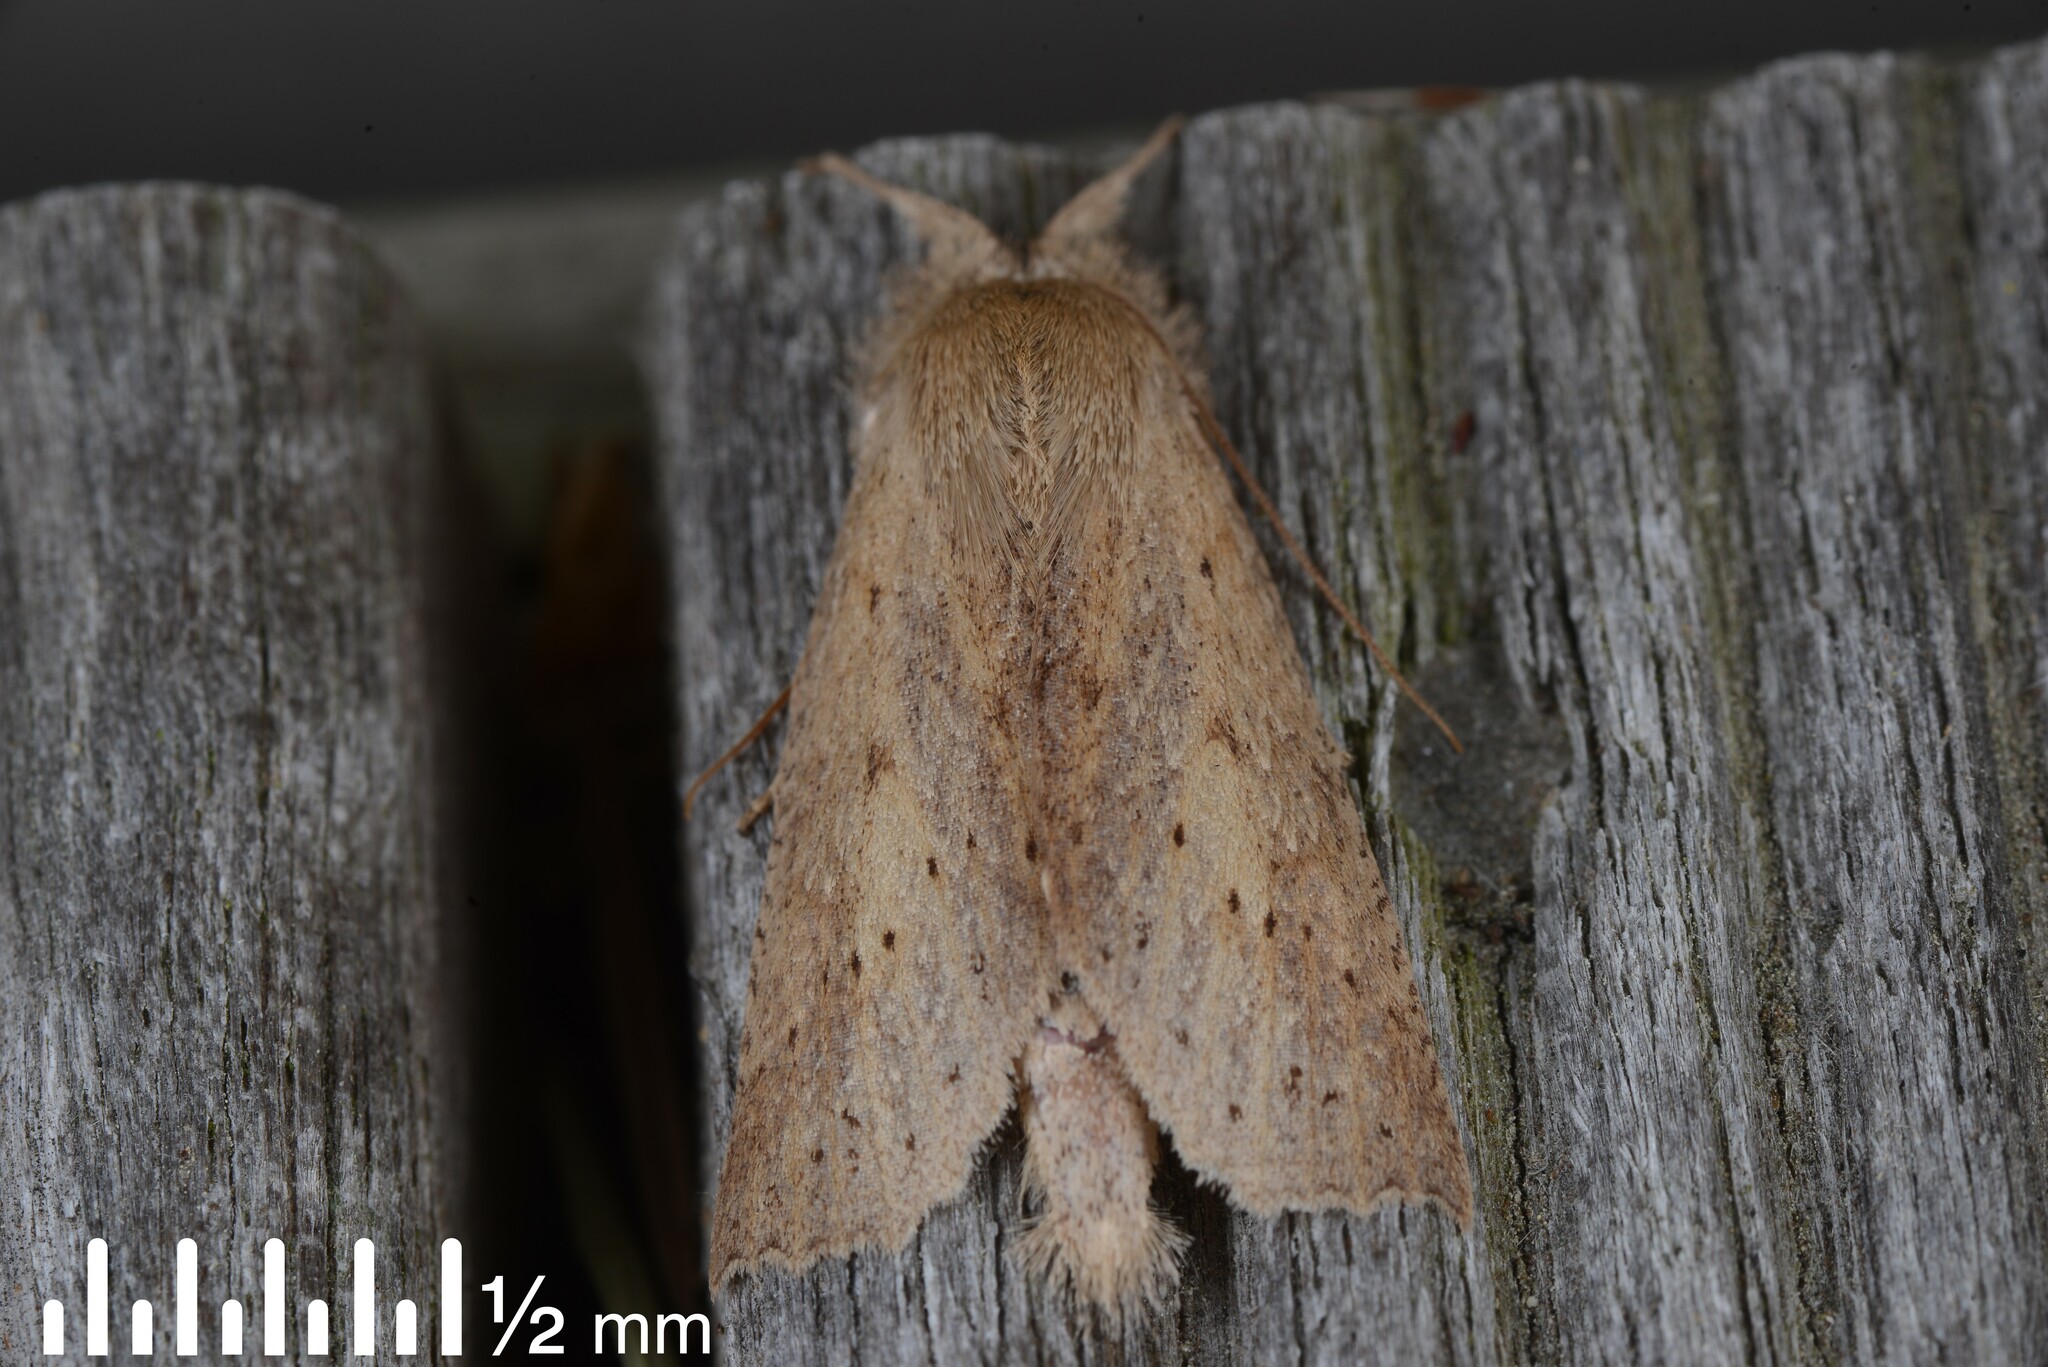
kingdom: Animalia
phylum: Arthropoda
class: Insecta
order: Lepidoptera
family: Geometridae
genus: Declana
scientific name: Declana leptomera
